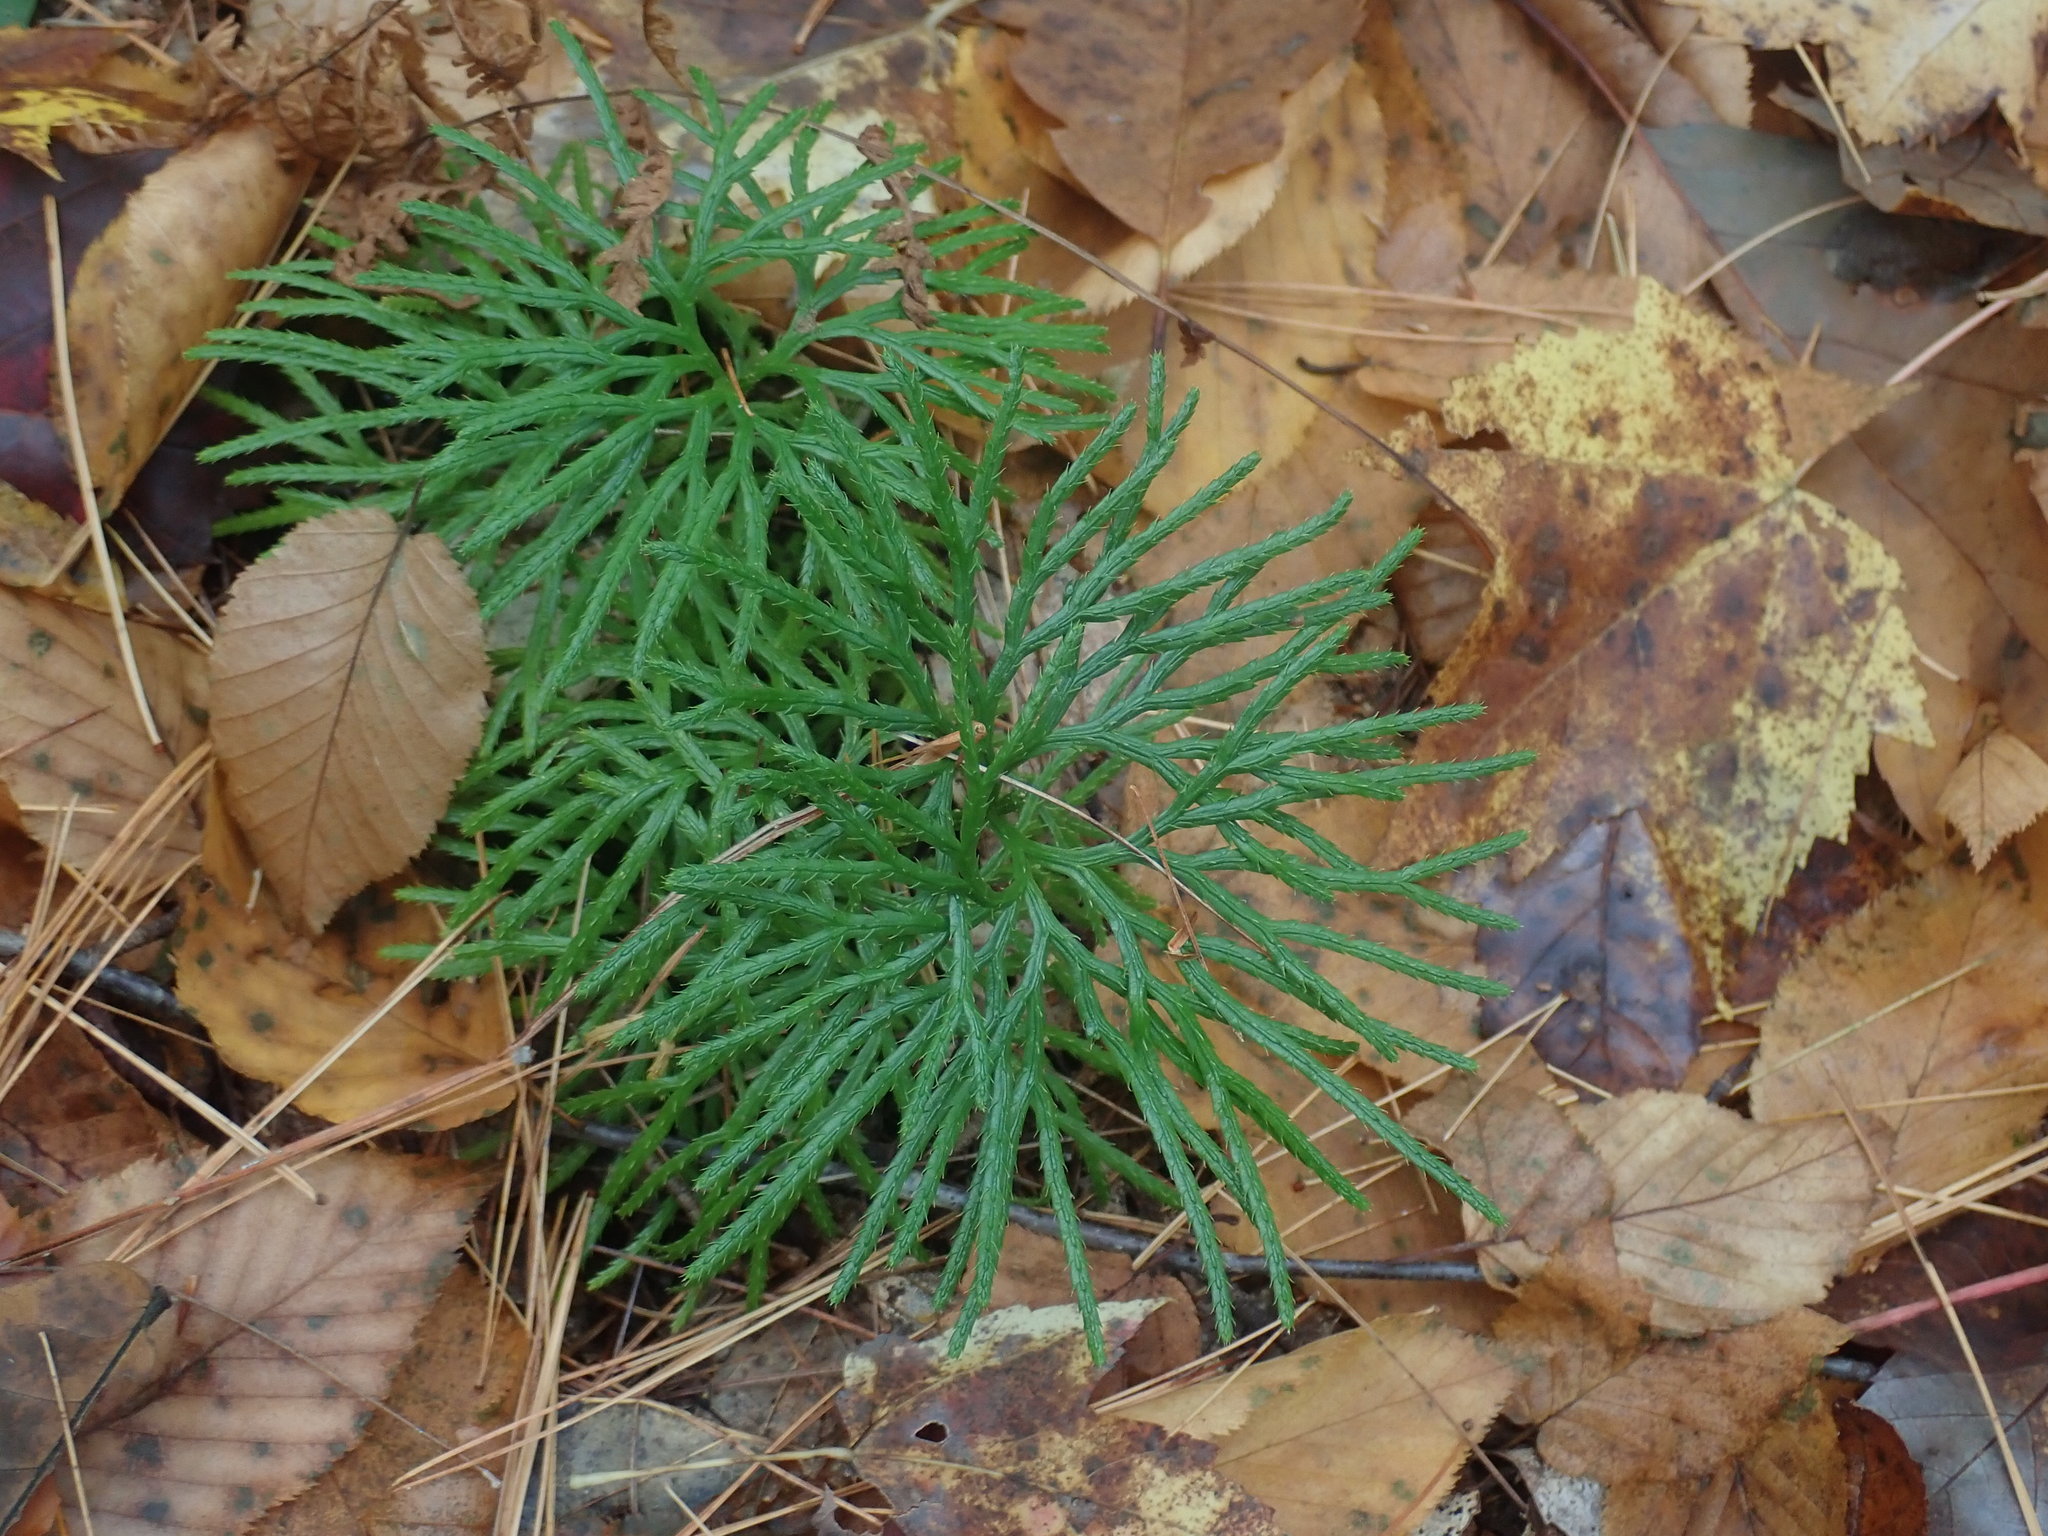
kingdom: Plantae
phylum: Tracheophyta
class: Lycopodiopsida
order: Lycopodiales
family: Lycopodiaceae
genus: Diphasiastrum
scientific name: Diphasiastrum digitatum
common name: Southern running-pine
